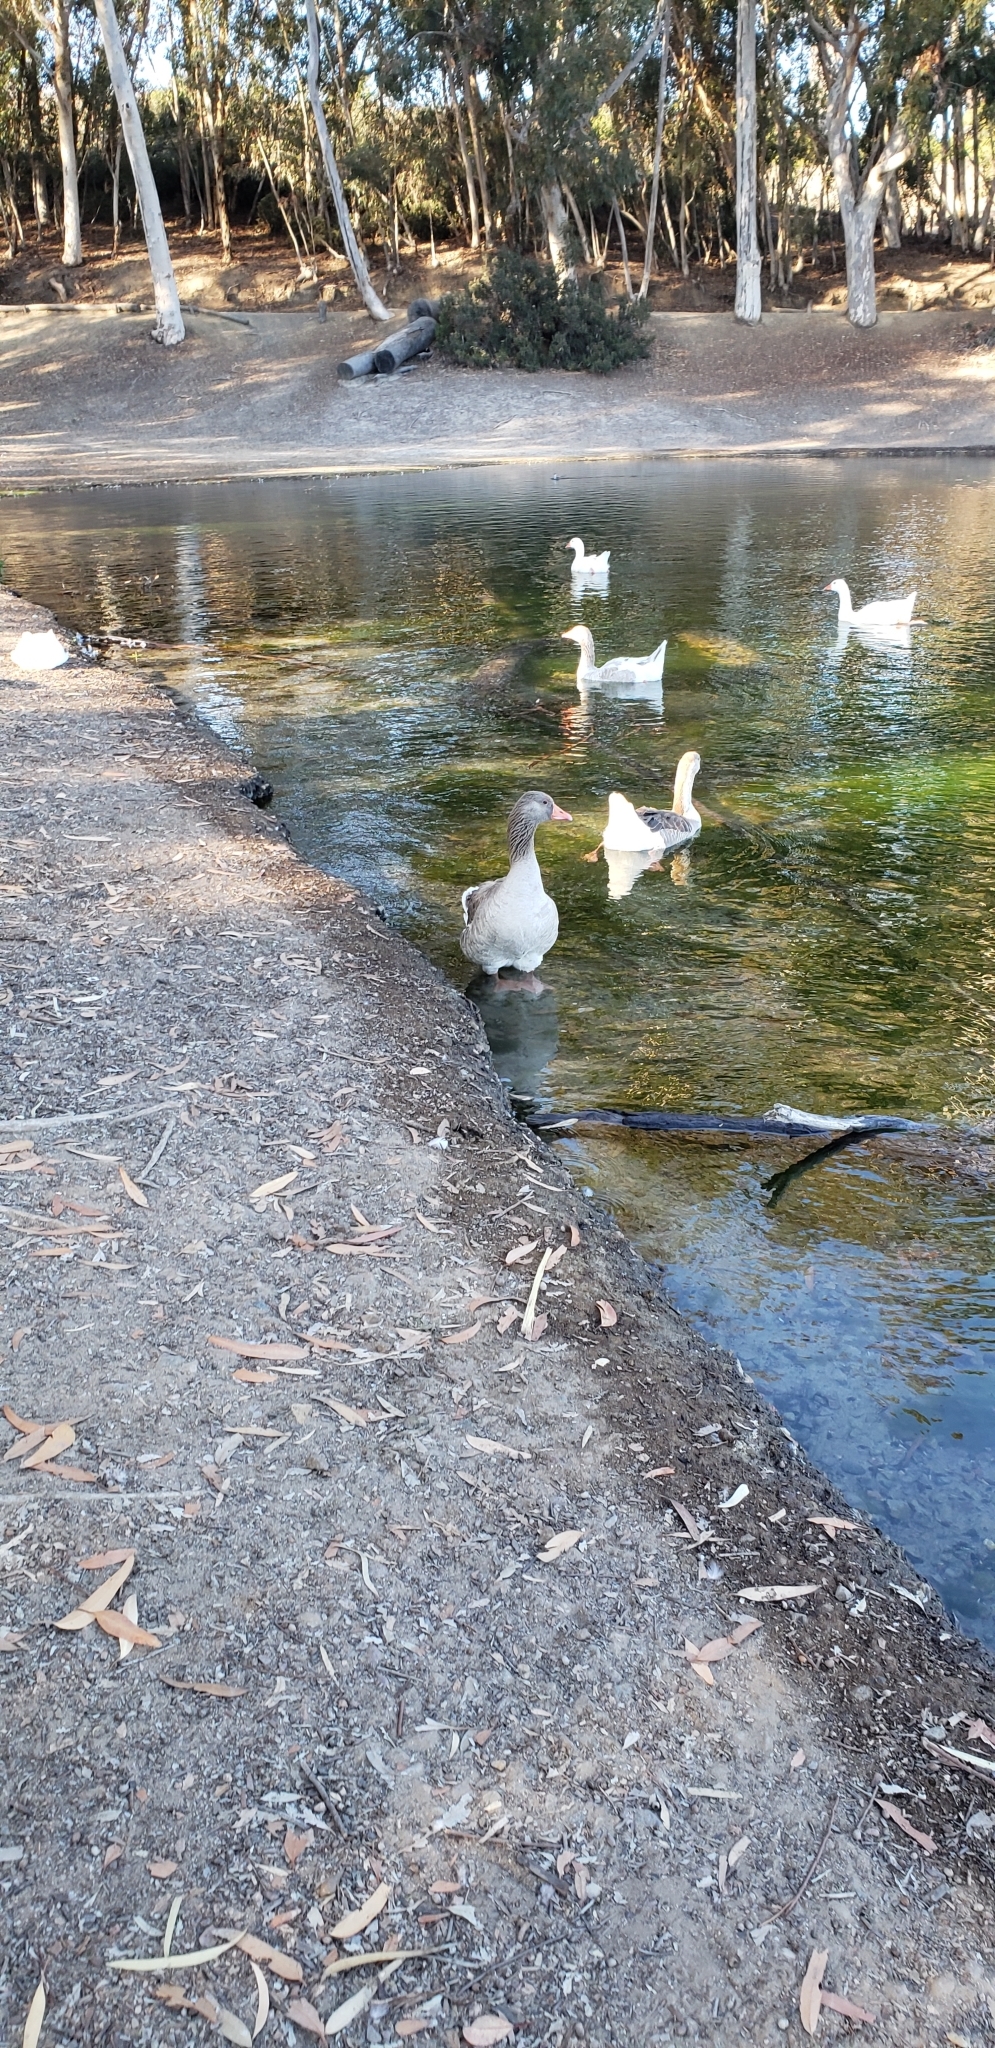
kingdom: Animalia
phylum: Chordata
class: Aves
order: Anseriformes
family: Anatidae
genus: Anser
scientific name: Anser anser
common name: Greylag goose
